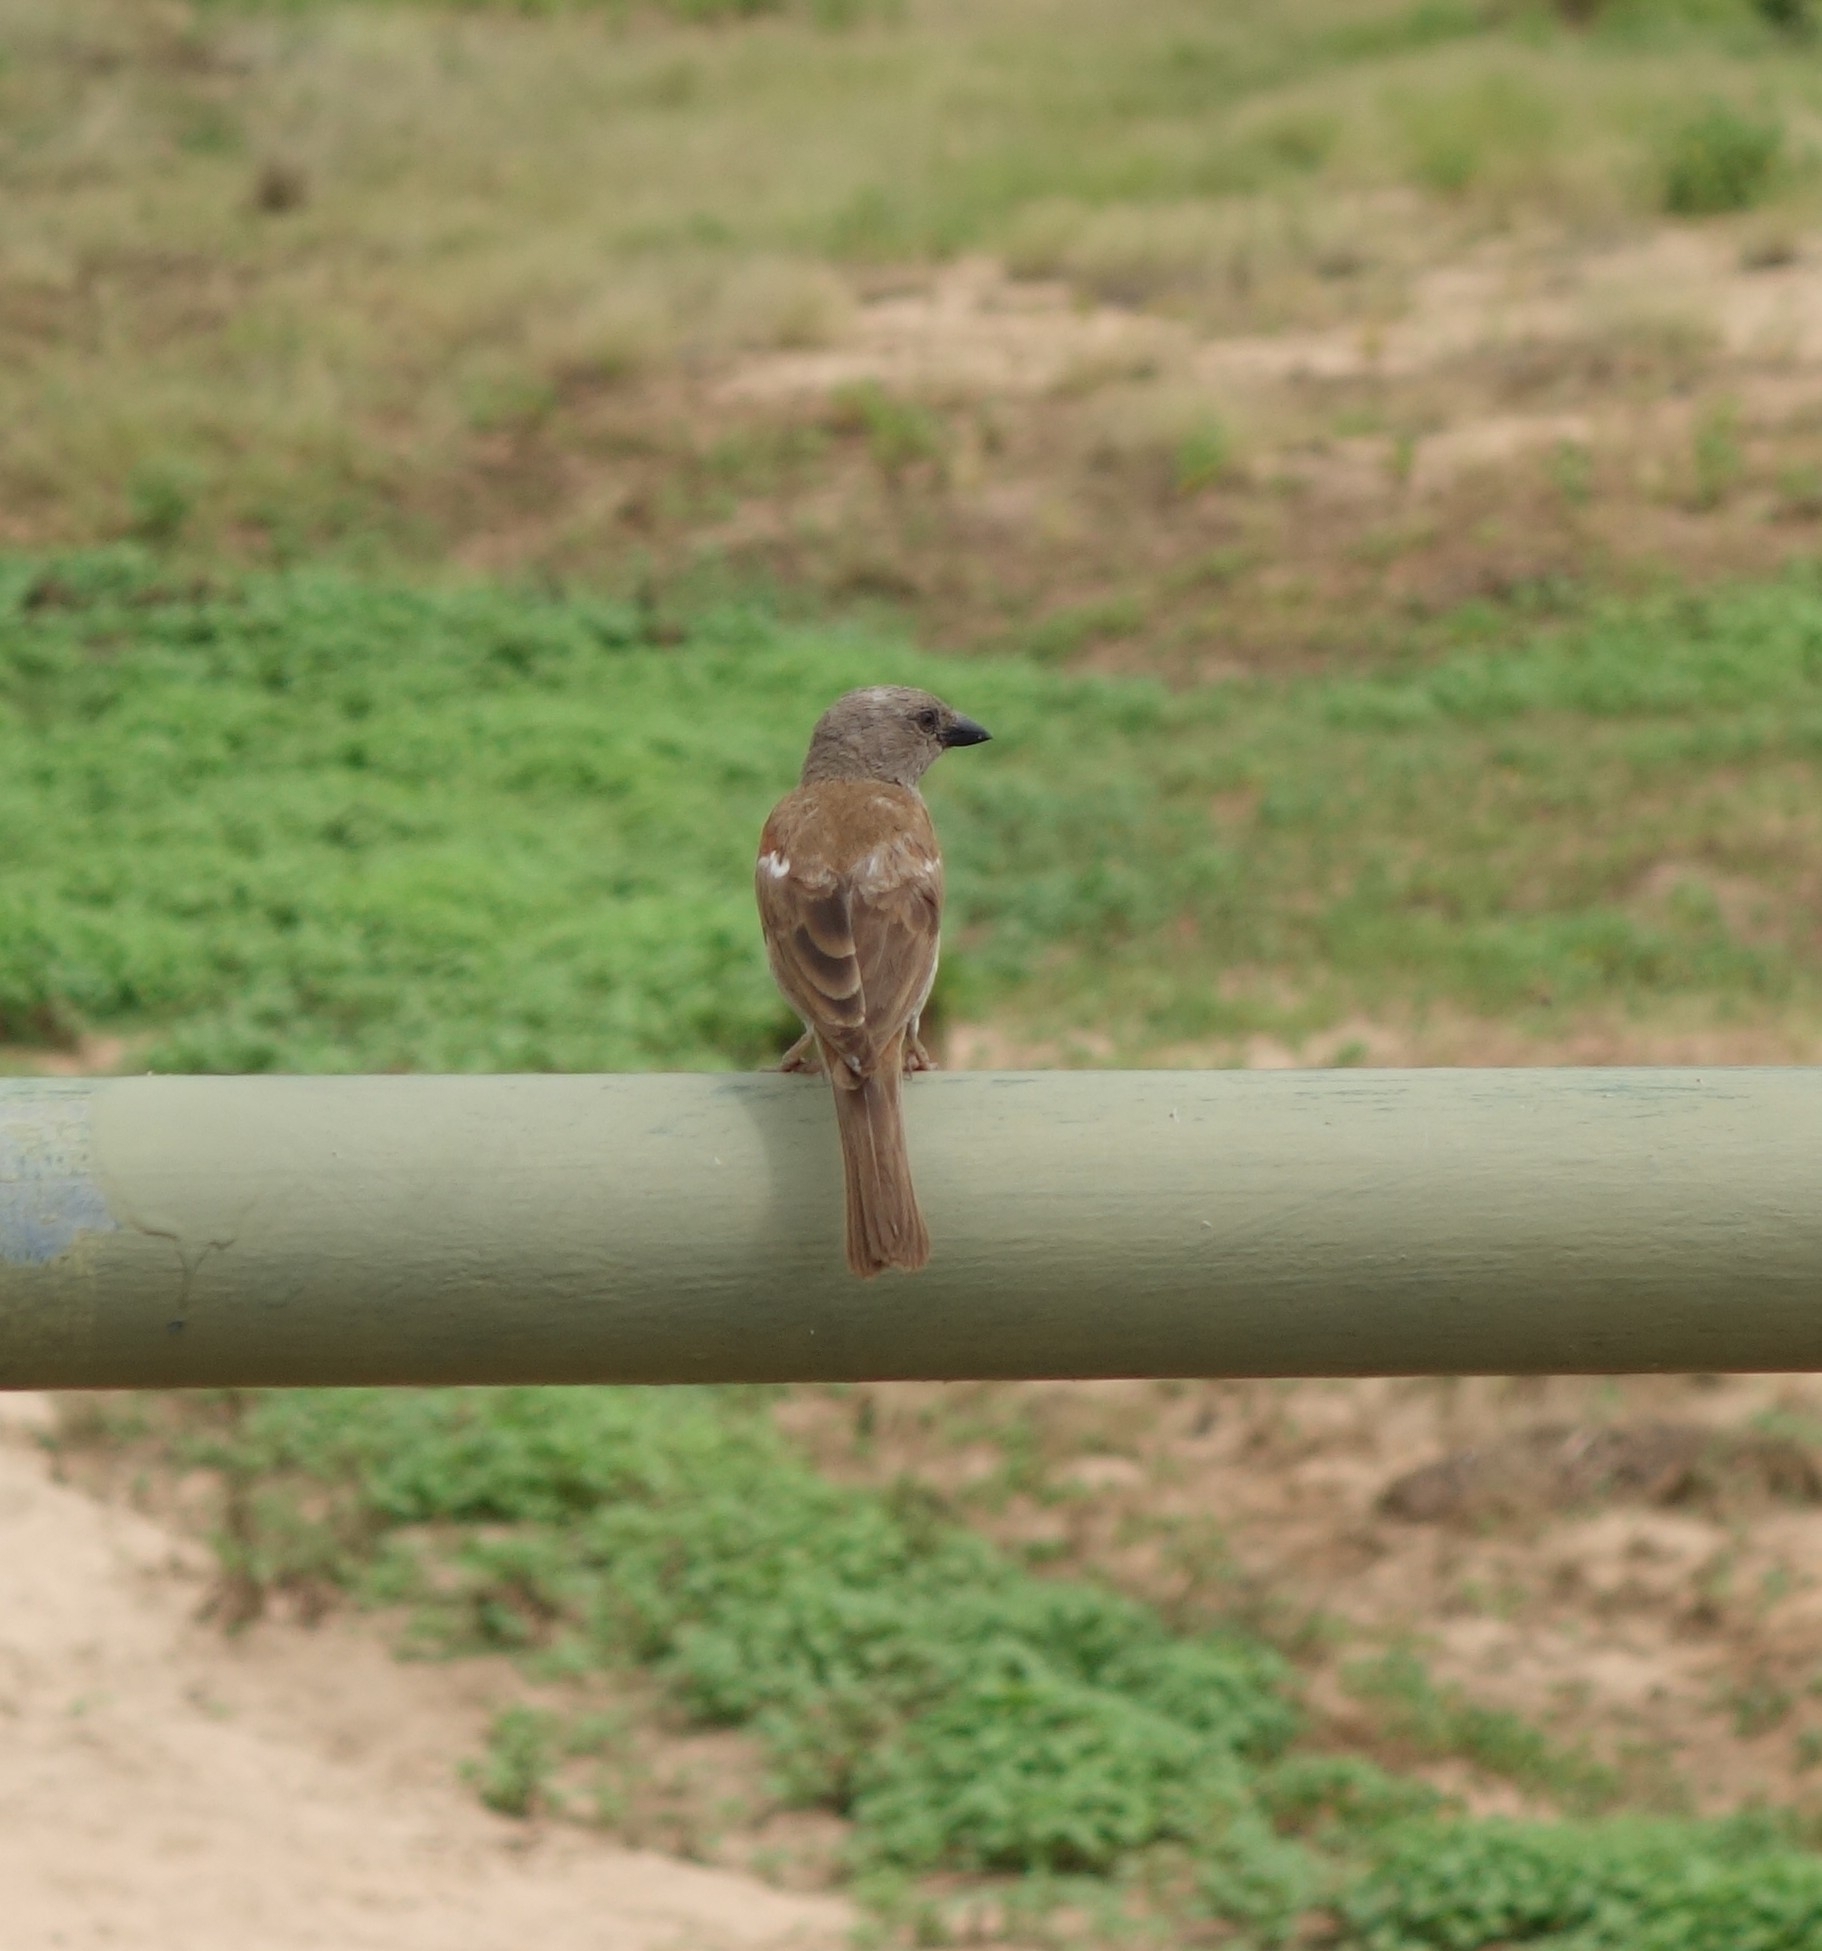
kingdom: Animalia
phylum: Chordata
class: Aves
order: Passeriformes
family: Passeridae
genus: Passer
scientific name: Passer diffusus
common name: Southern grey-headed sparrow
